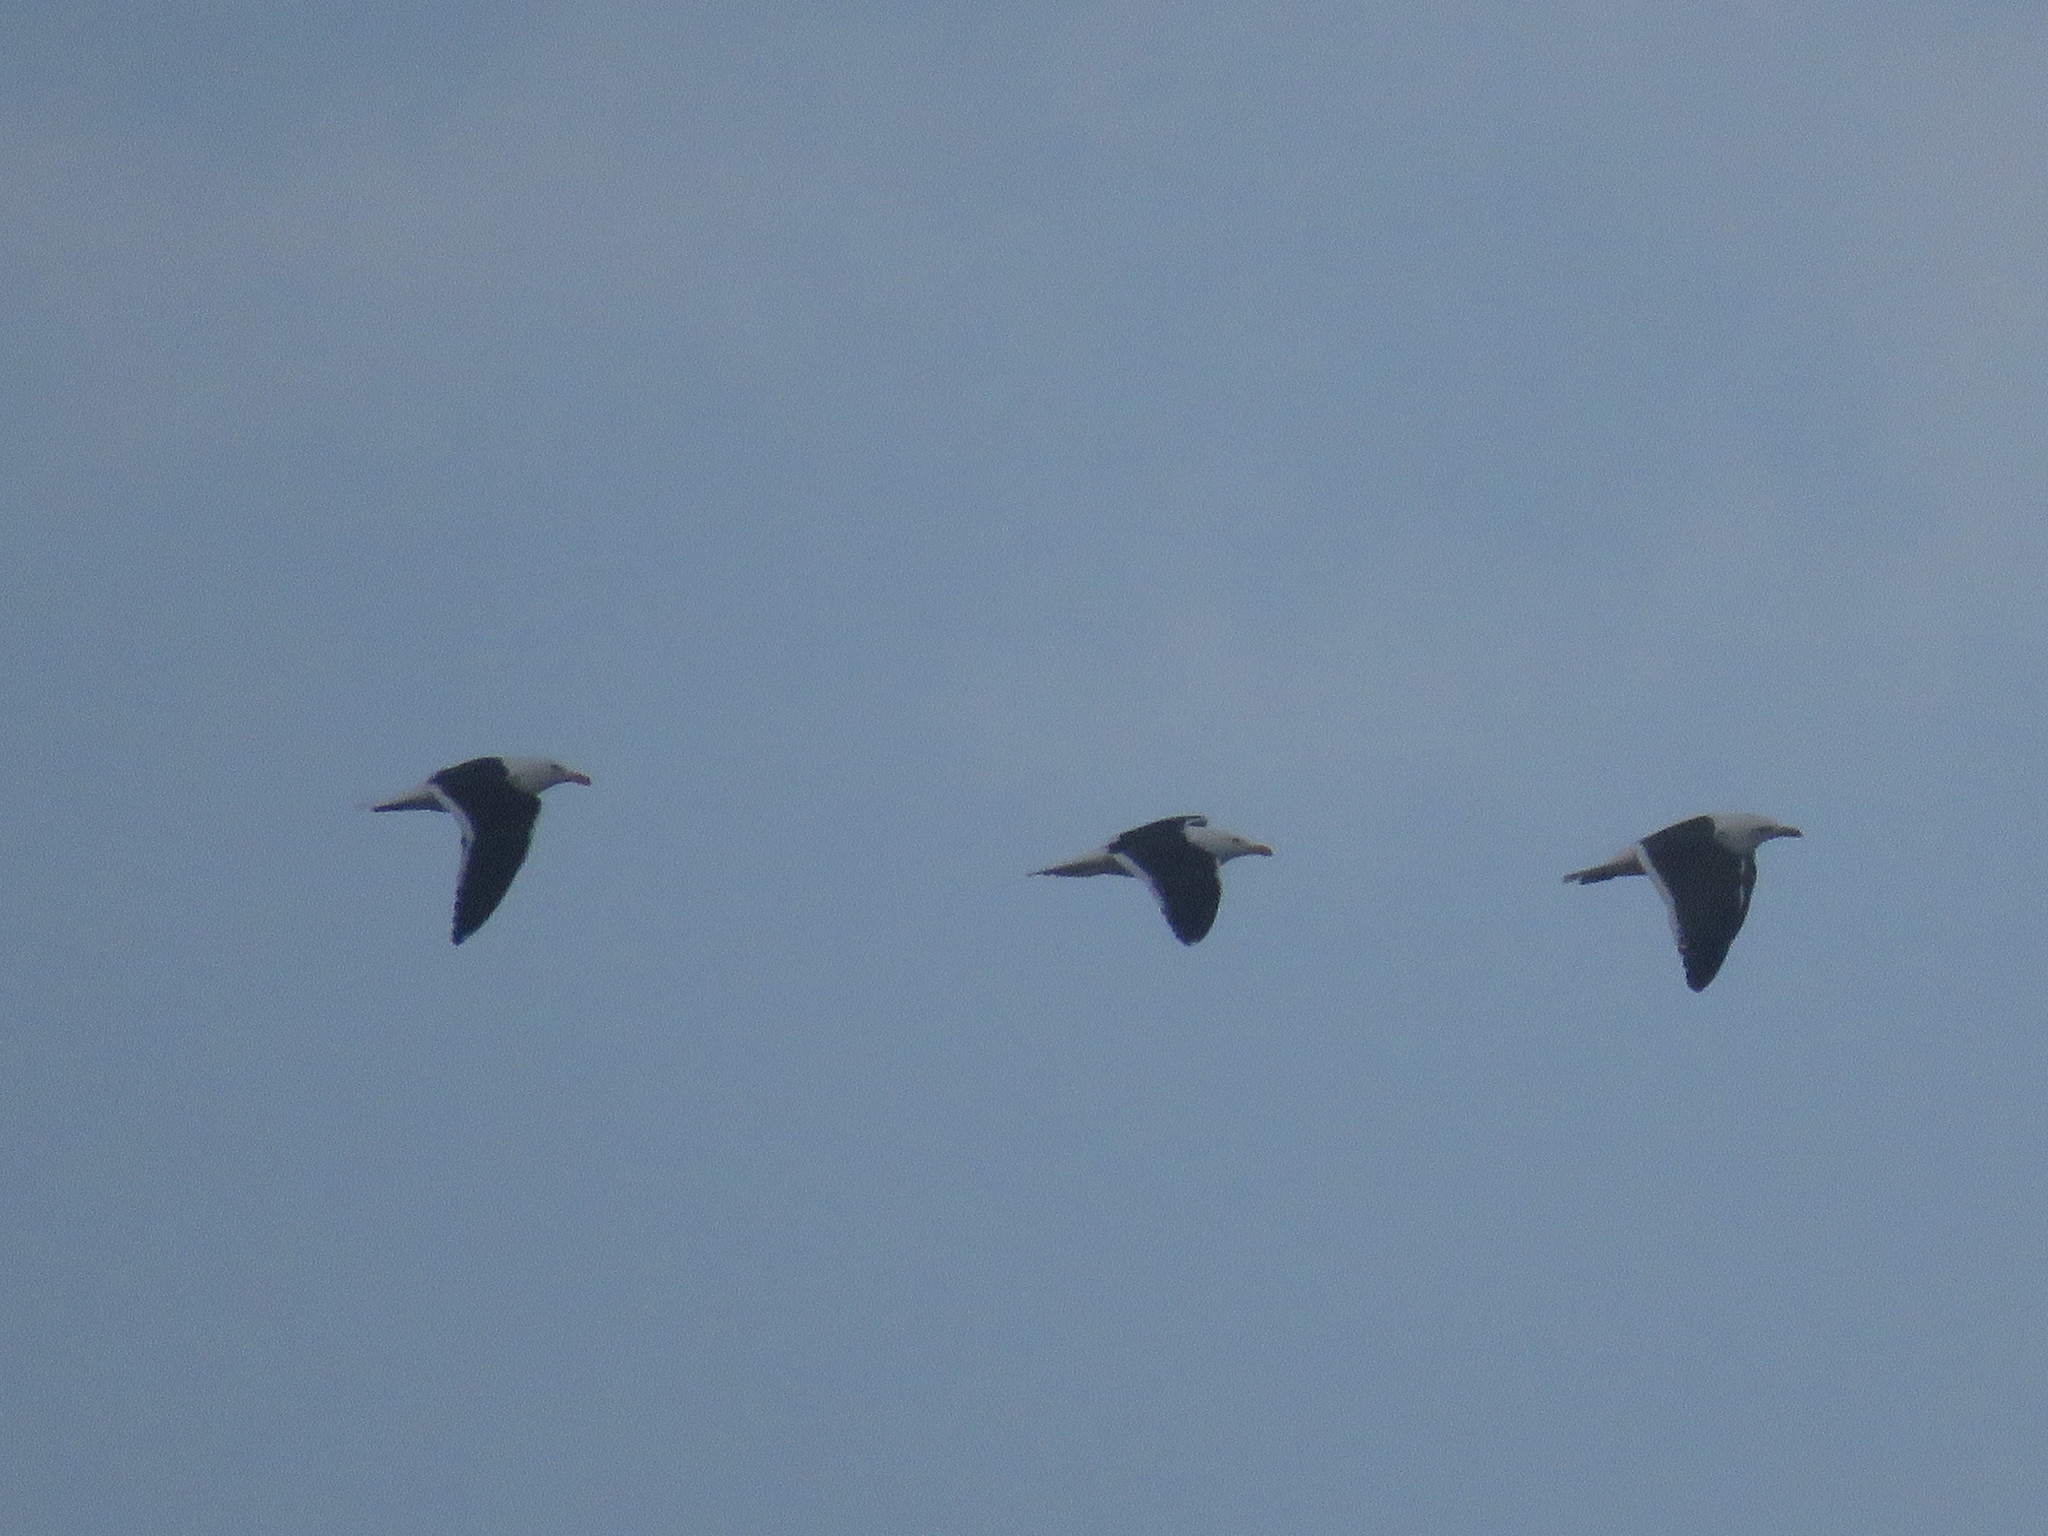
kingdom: Animalia
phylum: Chordata
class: Aves
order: Charadriiformes
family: Laridae
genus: Larus
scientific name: Larus dominicanus
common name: Kelp gull
